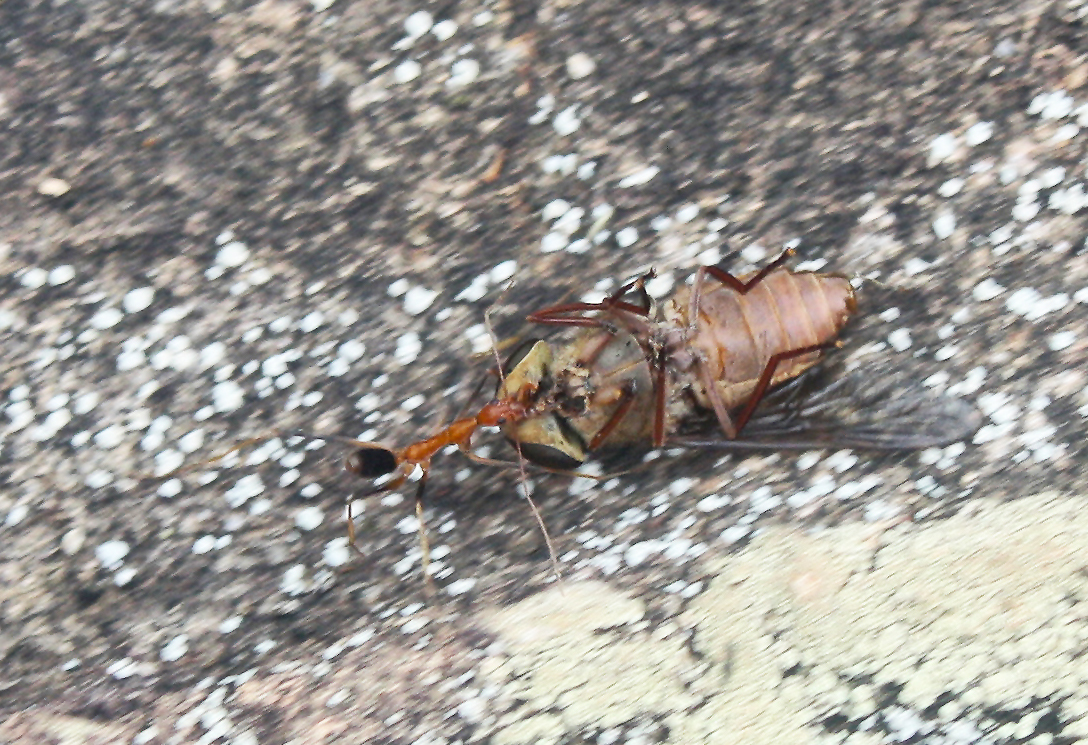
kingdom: Animalia
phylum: Arthropoda
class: Insecta
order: Hymenoptera
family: Formicidae
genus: Leptomyrmex
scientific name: Leptomyrmex rufipes
